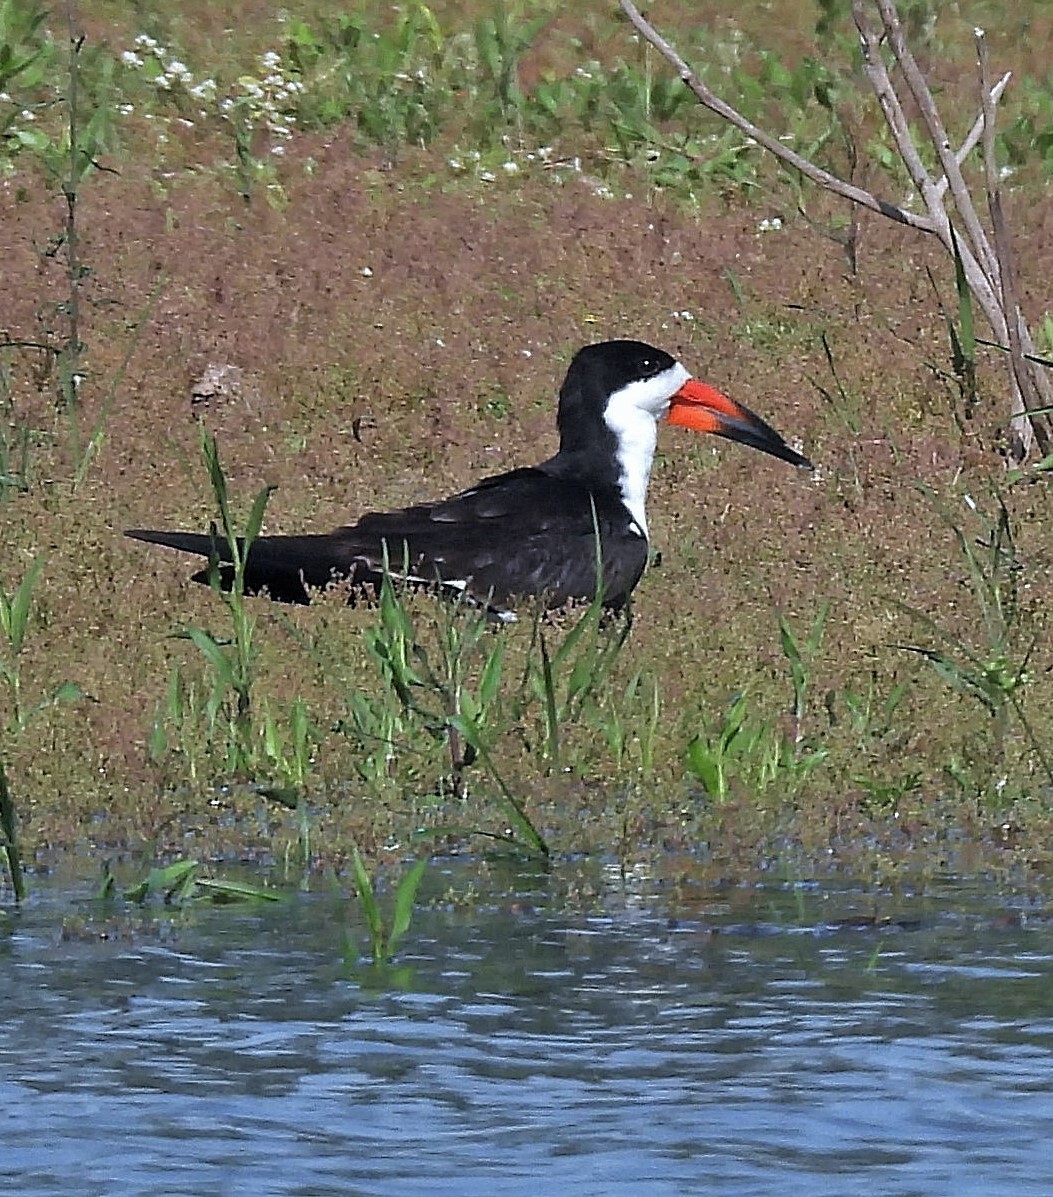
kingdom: Animalia
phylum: Chordata
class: Aves
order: Charadriiformes
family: Laridae
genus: Rynchops
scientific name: Rynchops niger
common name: Black skimmer
